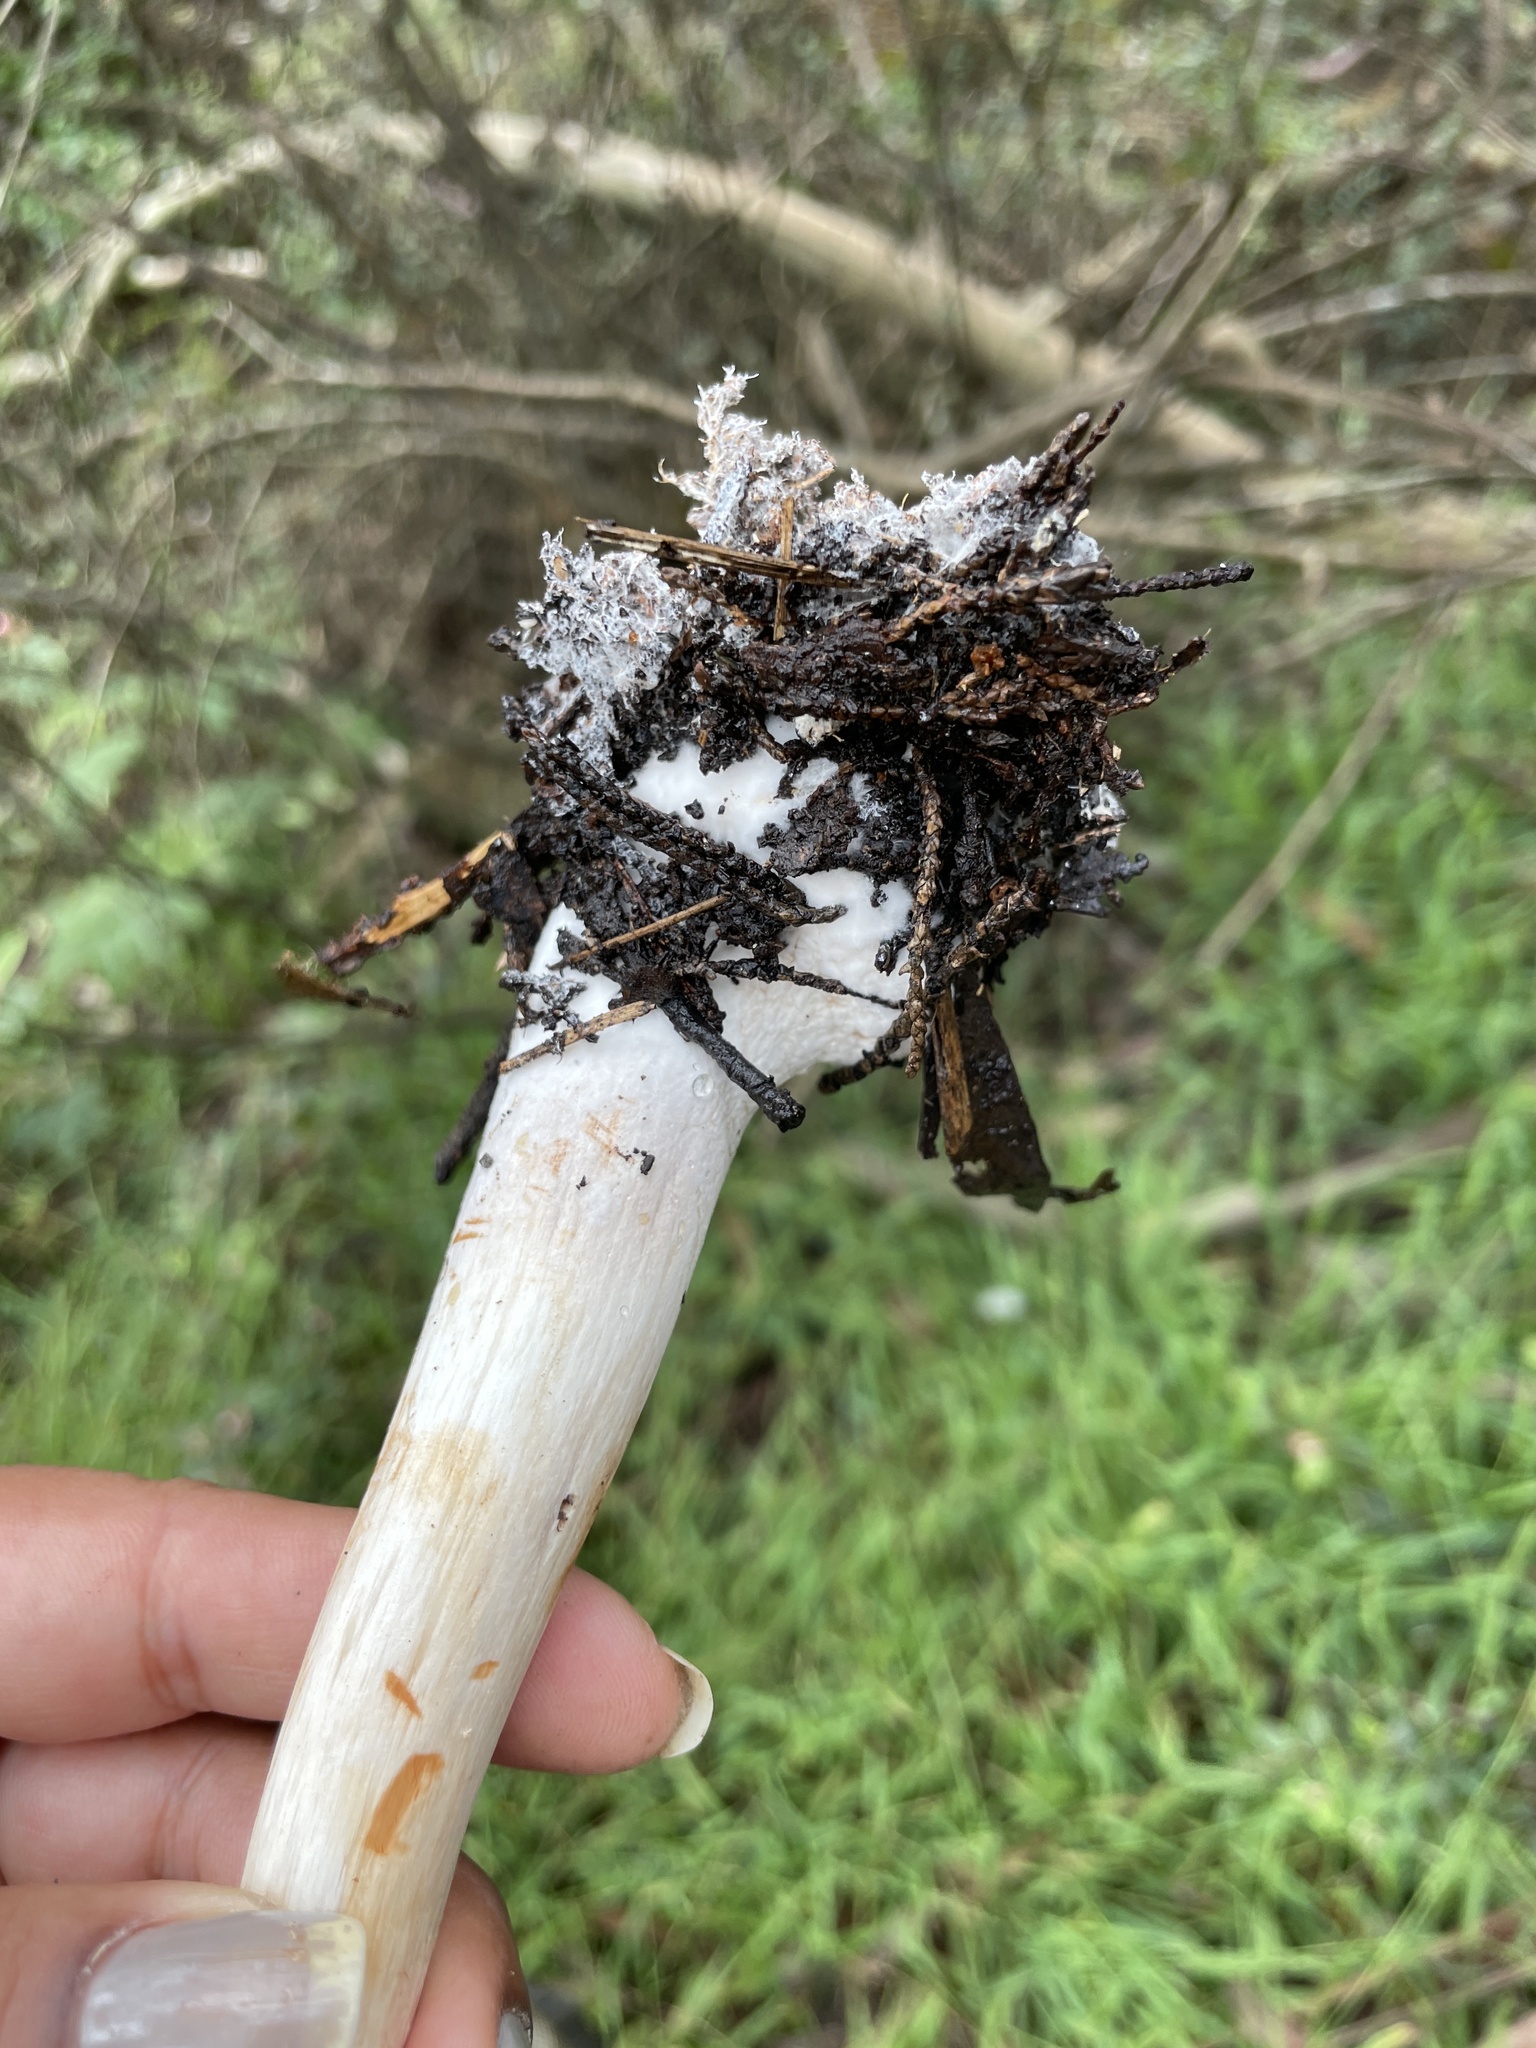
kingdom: Fungi
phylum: Basidiomycota
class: Agaricomycetes
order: Agaricales
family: Agaricaceae
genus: Chlorophyllum
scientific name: Chlorophyllum brunneum
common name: Brown parasol
